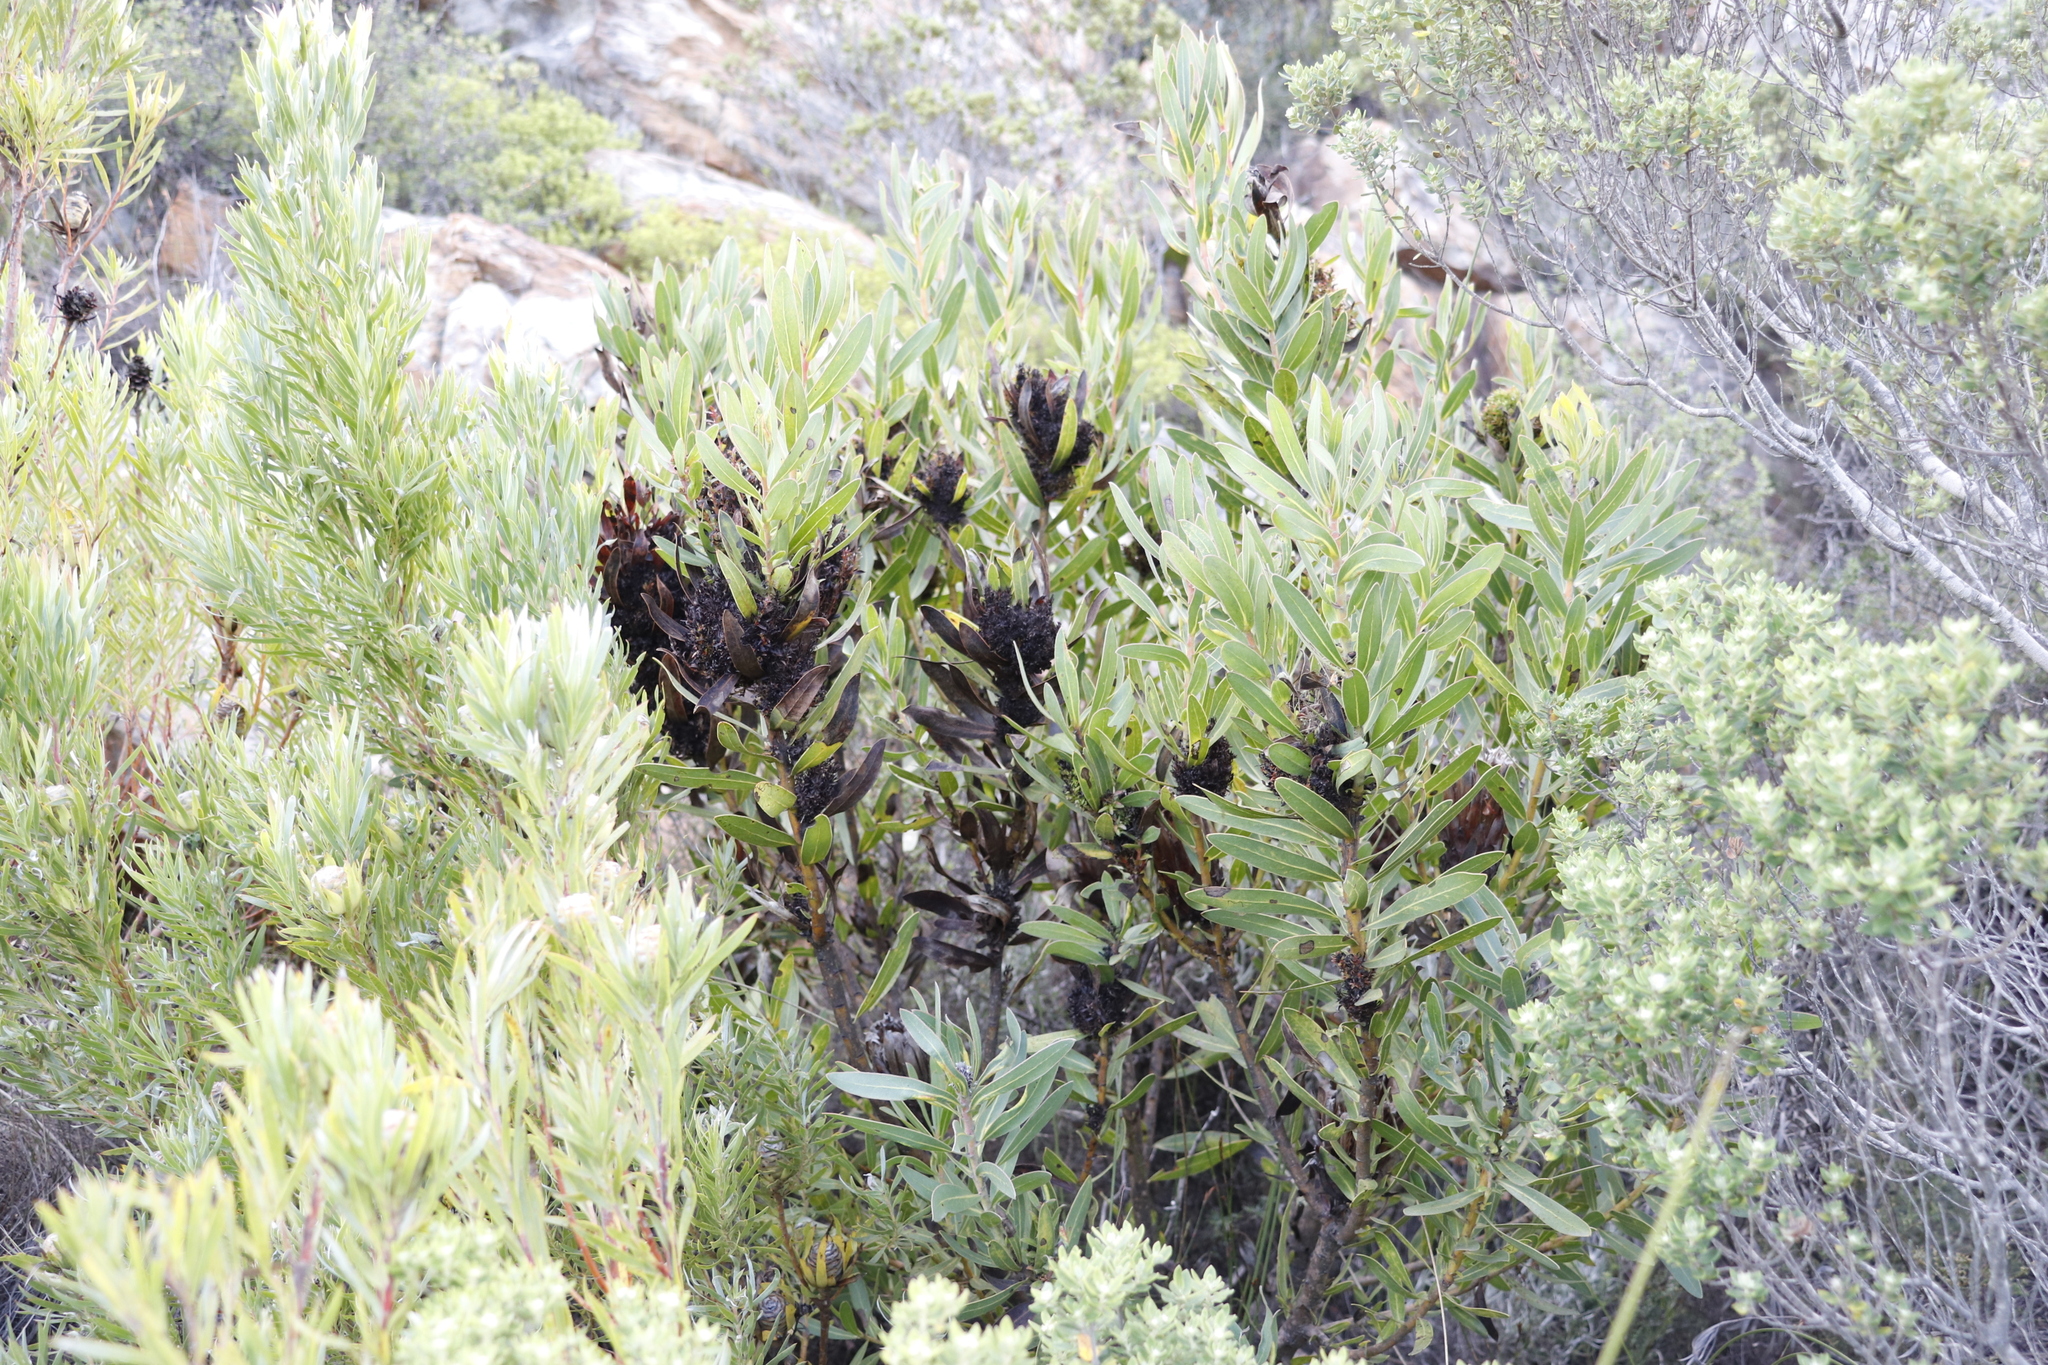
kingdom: Plantae
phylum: Tracheophyta
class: Magnoliopsida
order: Proteales
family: Proteaceae
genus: Protea
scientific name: Protea lepidocarpodendron
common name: Black-bearded protea
